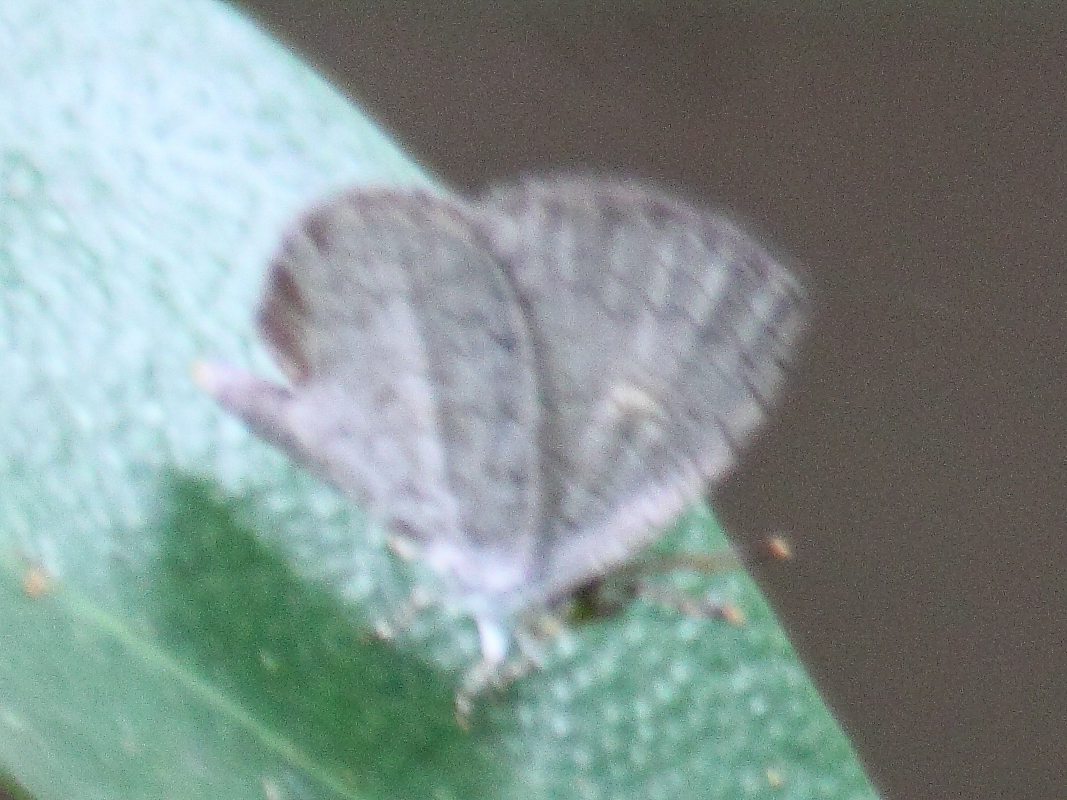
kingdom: Animalia
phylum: Arthropoda
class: Insecta
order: Lepidoptera
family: Lycaenidae
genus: Spalgis
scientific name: Spalgis epius
